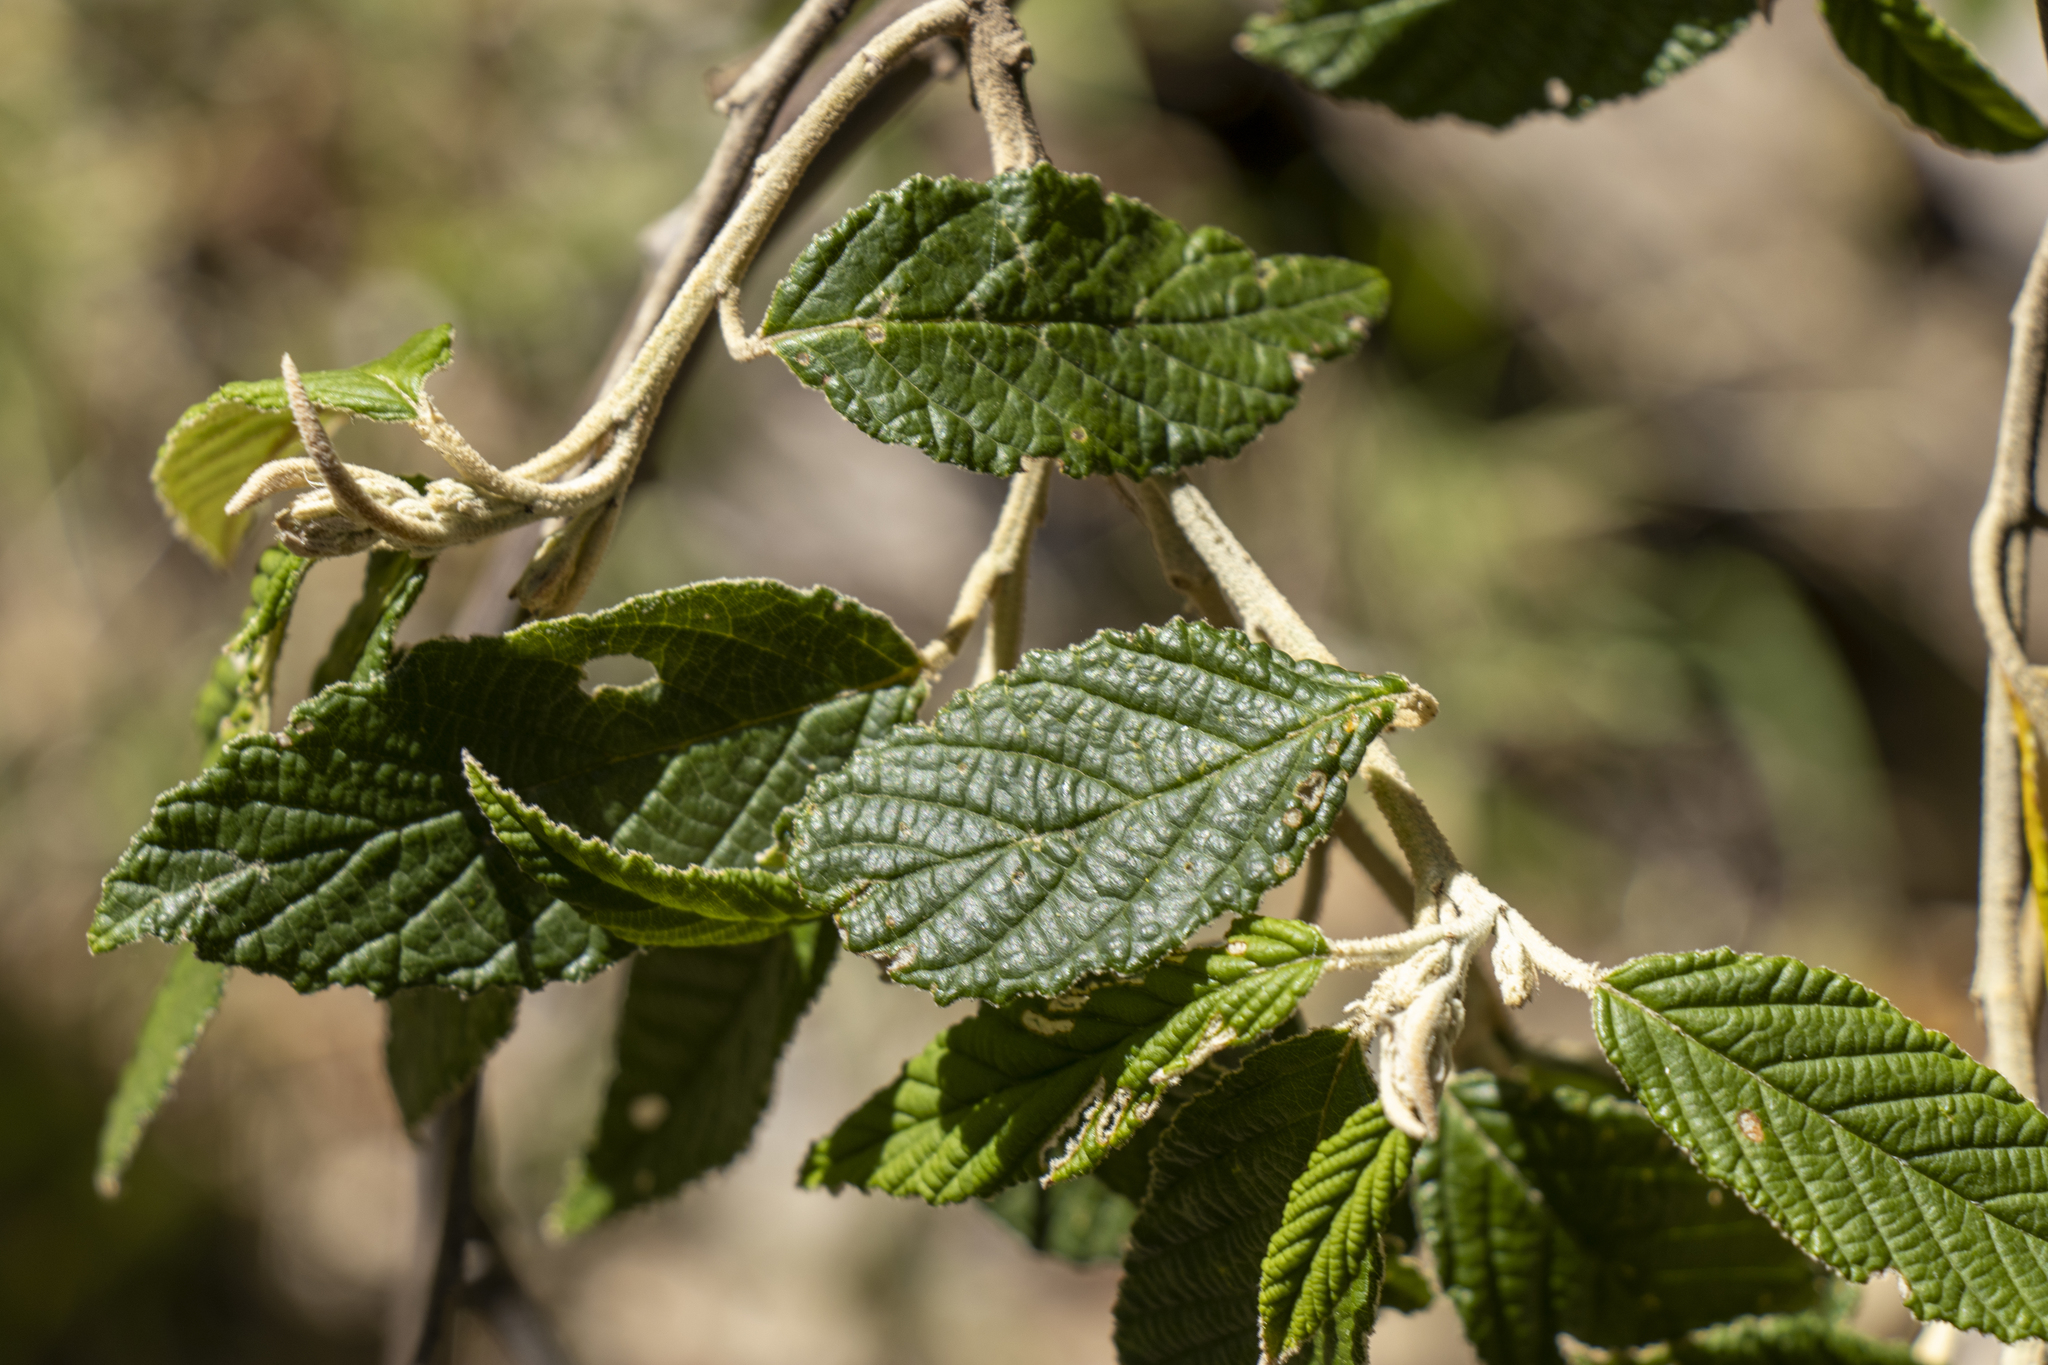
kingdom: Plantae
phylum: Tracheophyta
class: Magnoliopsida
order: Rosales
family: Rhamnaceae
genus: Pomaderris
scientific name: Pomaderris aspera
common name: Hazel pomaderris
